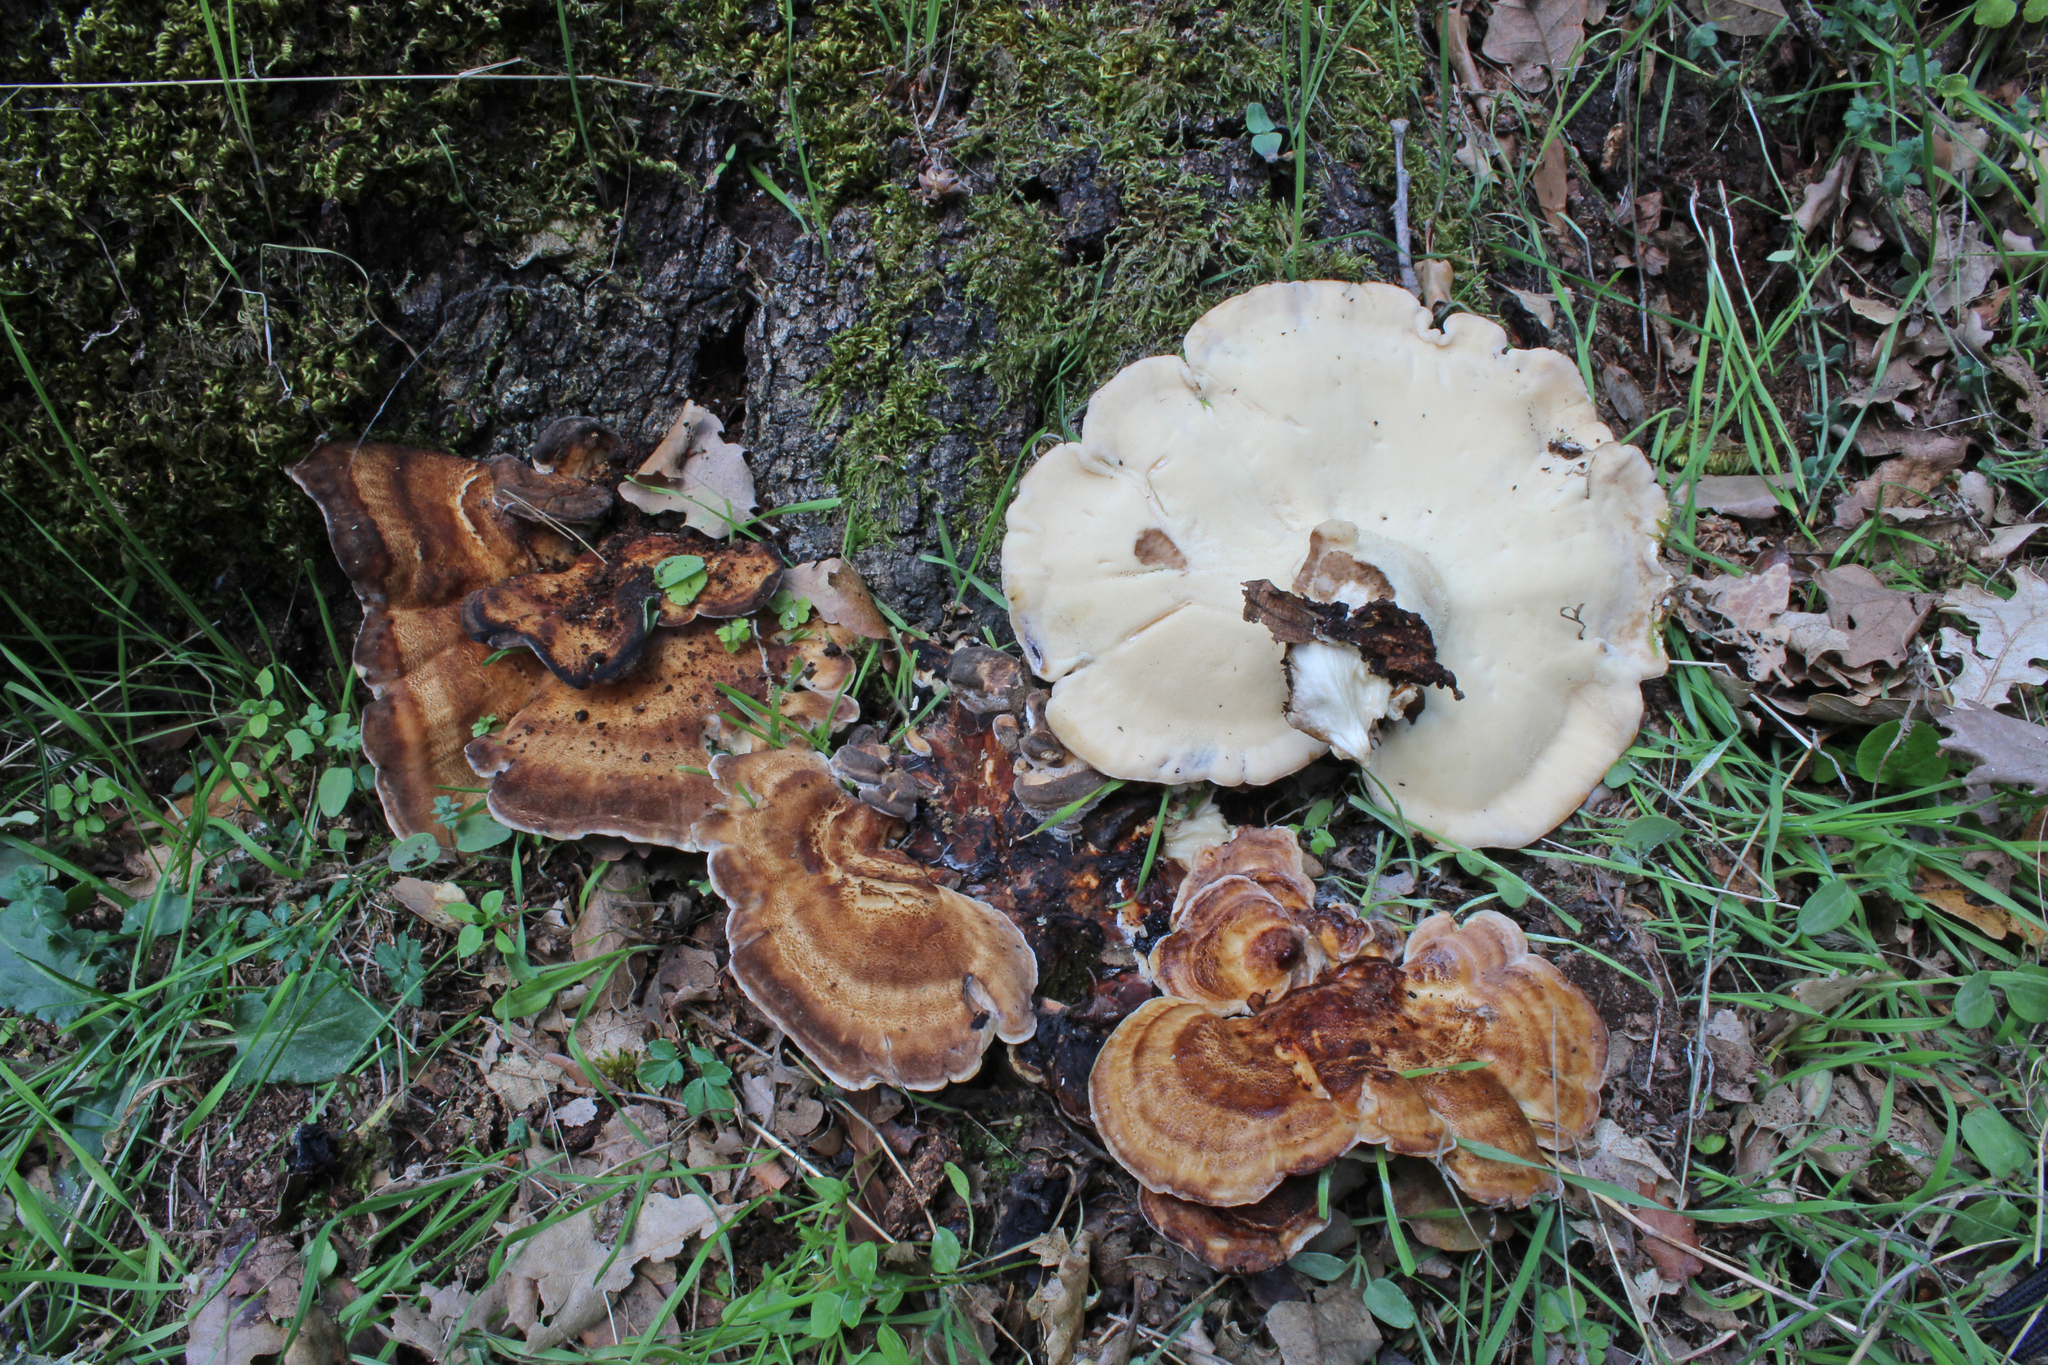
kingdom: Fungi
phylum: Basidiomycota
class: Agaricomycetes
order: Polyporales
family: Meripilaceae
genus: Meripilus
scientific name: Meripilus giganteus
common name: Giant polypore
